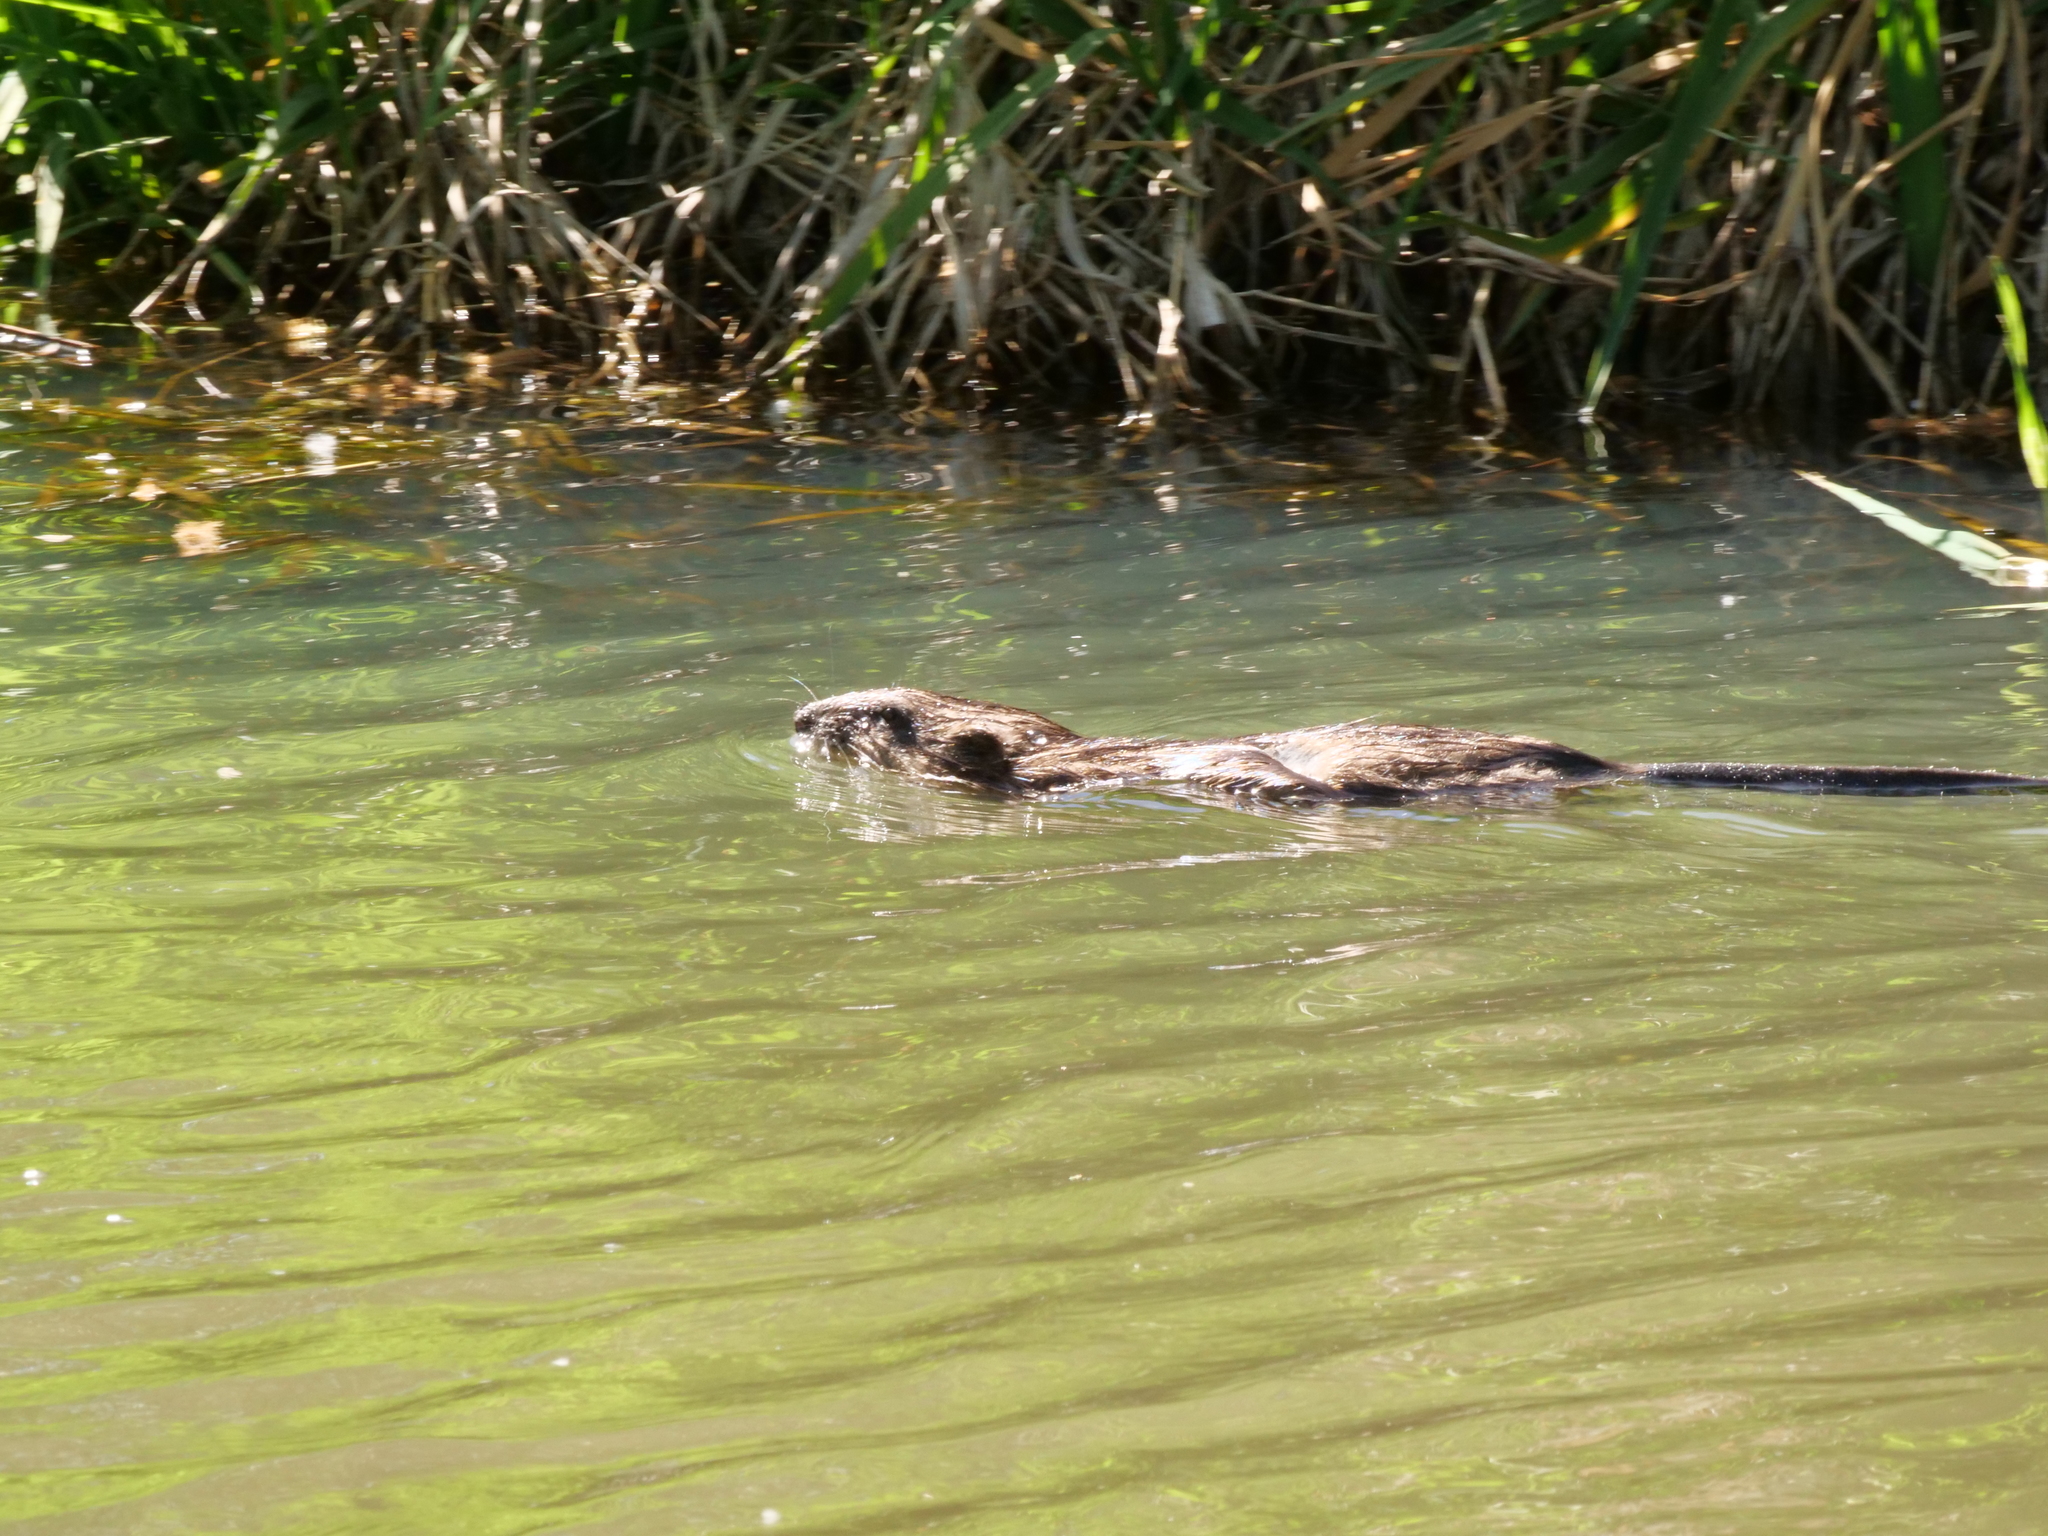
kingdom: Animalia
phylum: Chordata
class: Mammalia
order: Rodentia
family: Cricetidae
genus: Ondatra
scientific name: Ondatra zibethicus
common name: Muskrat
